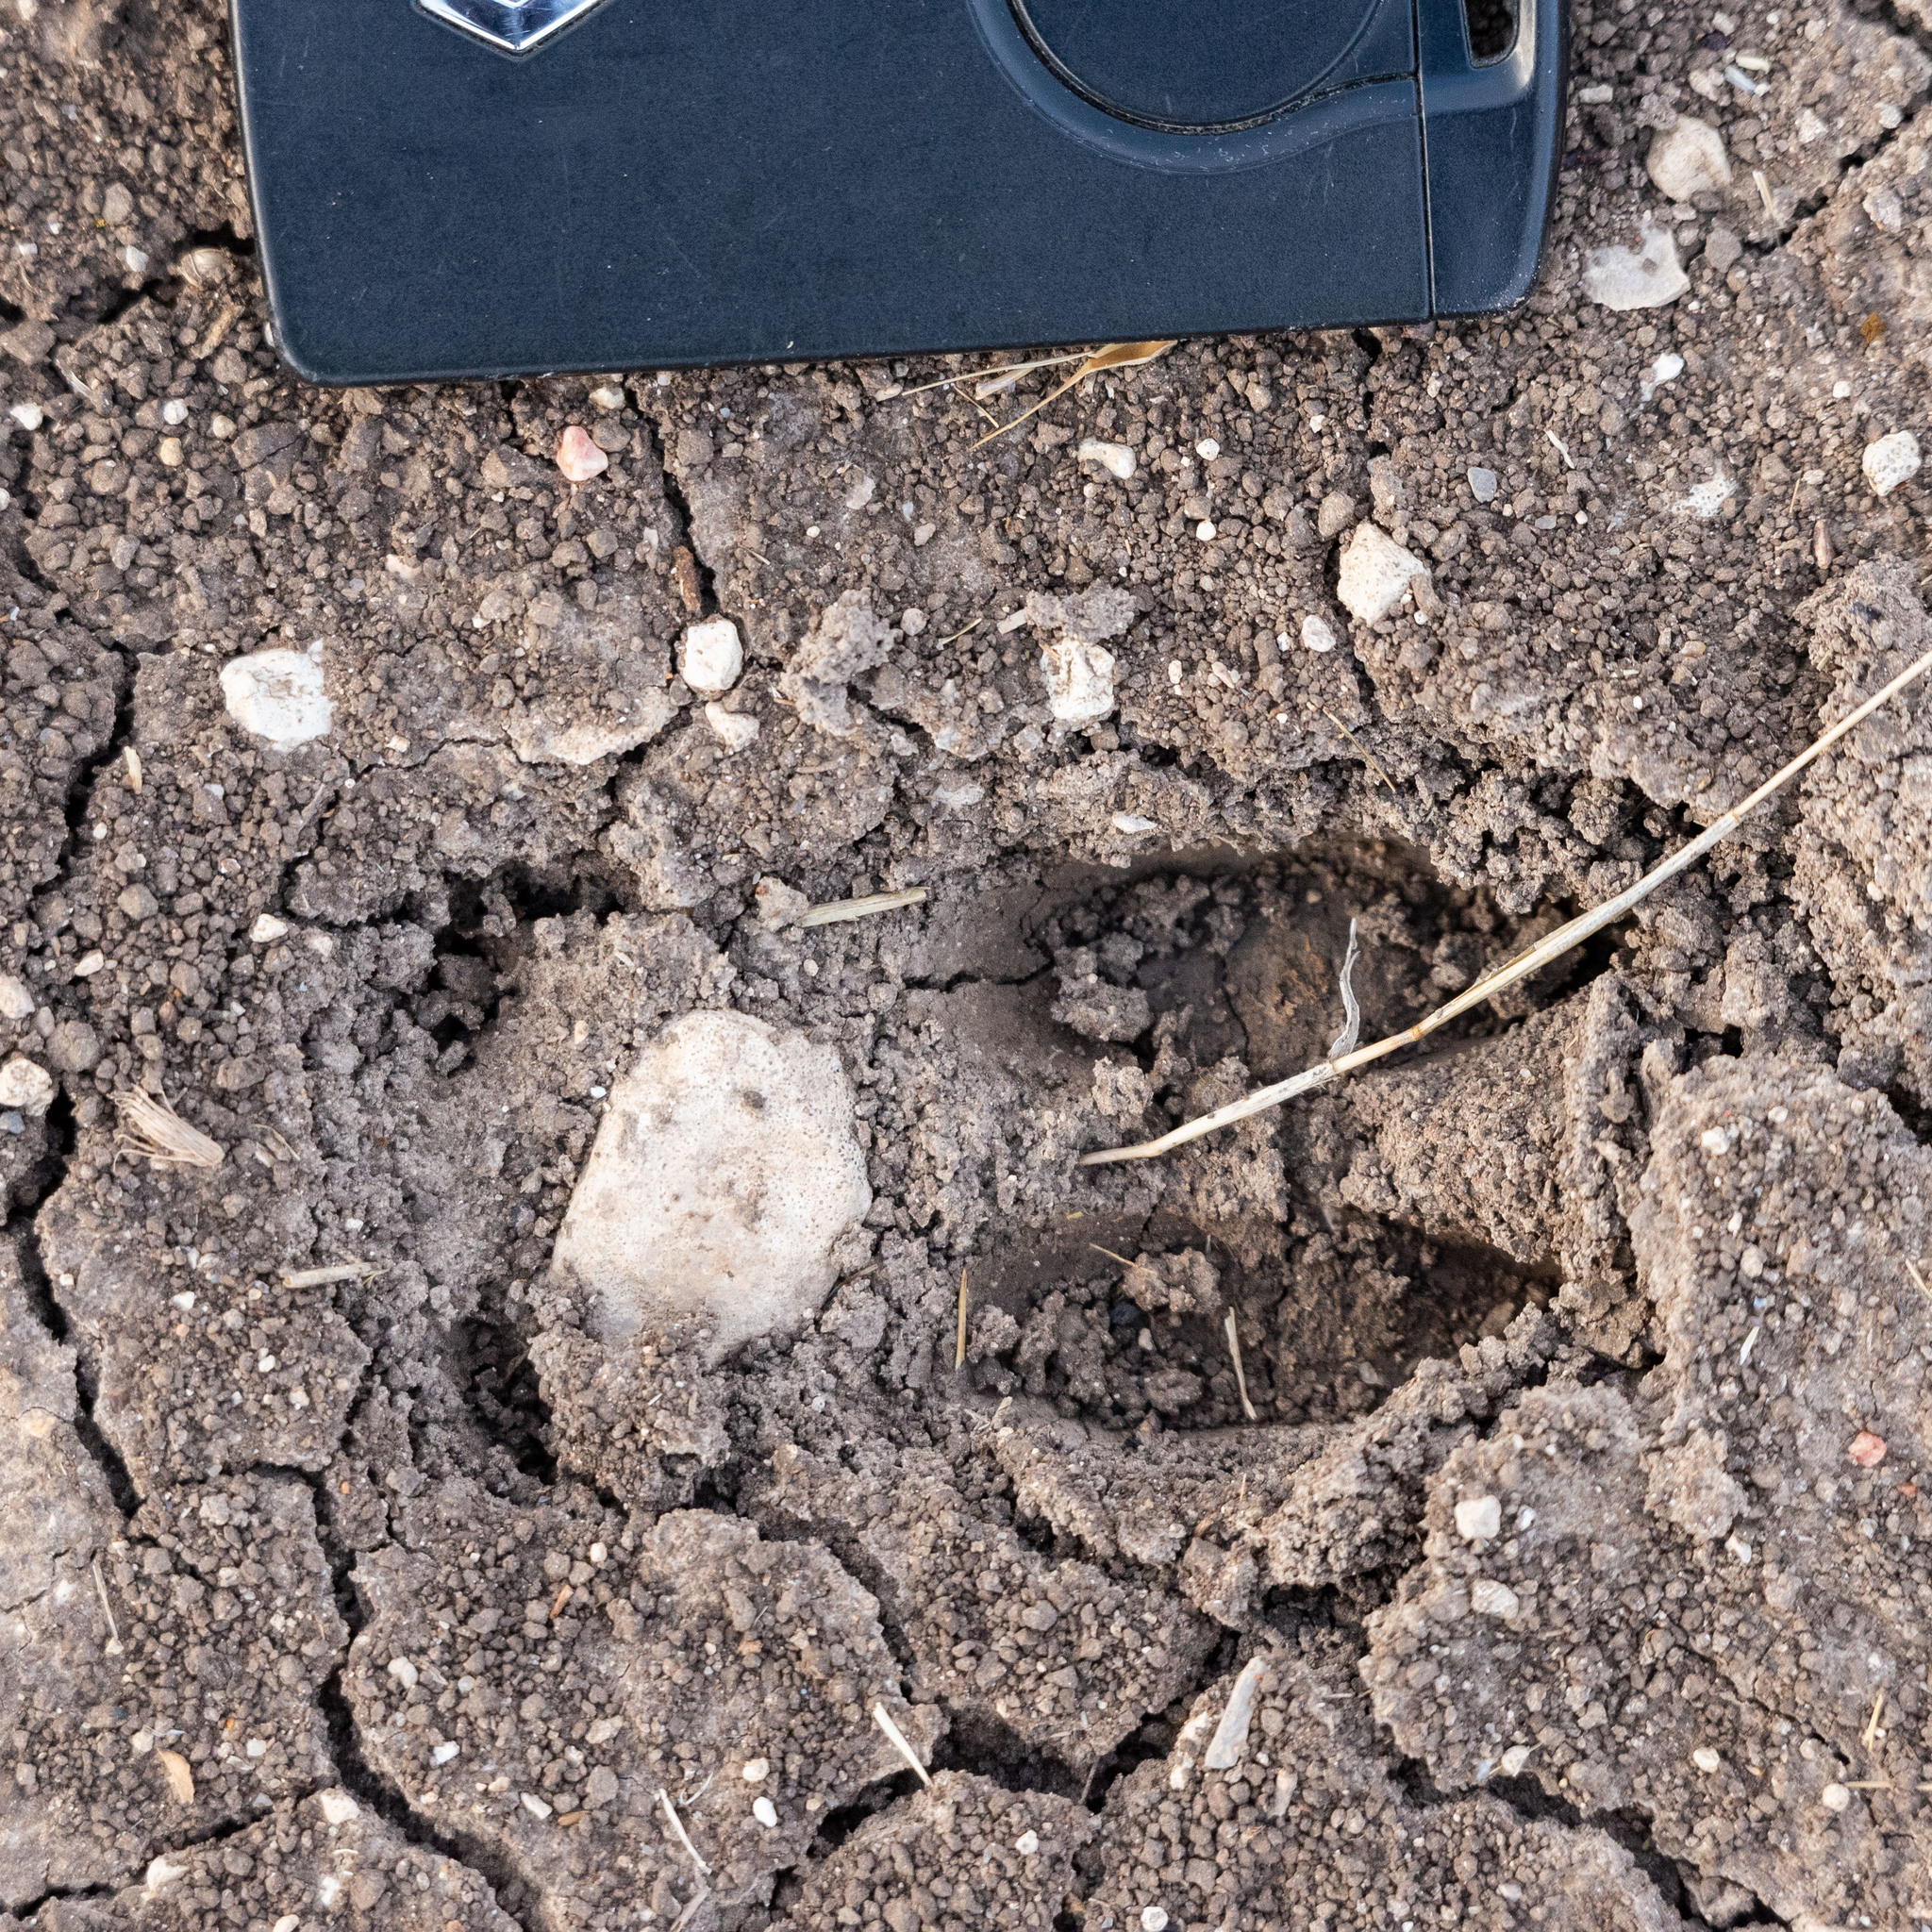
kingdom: Animalia
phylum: Chordata
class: Mammalia
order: Artiodactyla
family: Cervidae
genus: Capreolus
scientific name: Capreolus capreolus
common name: Western roe deer
